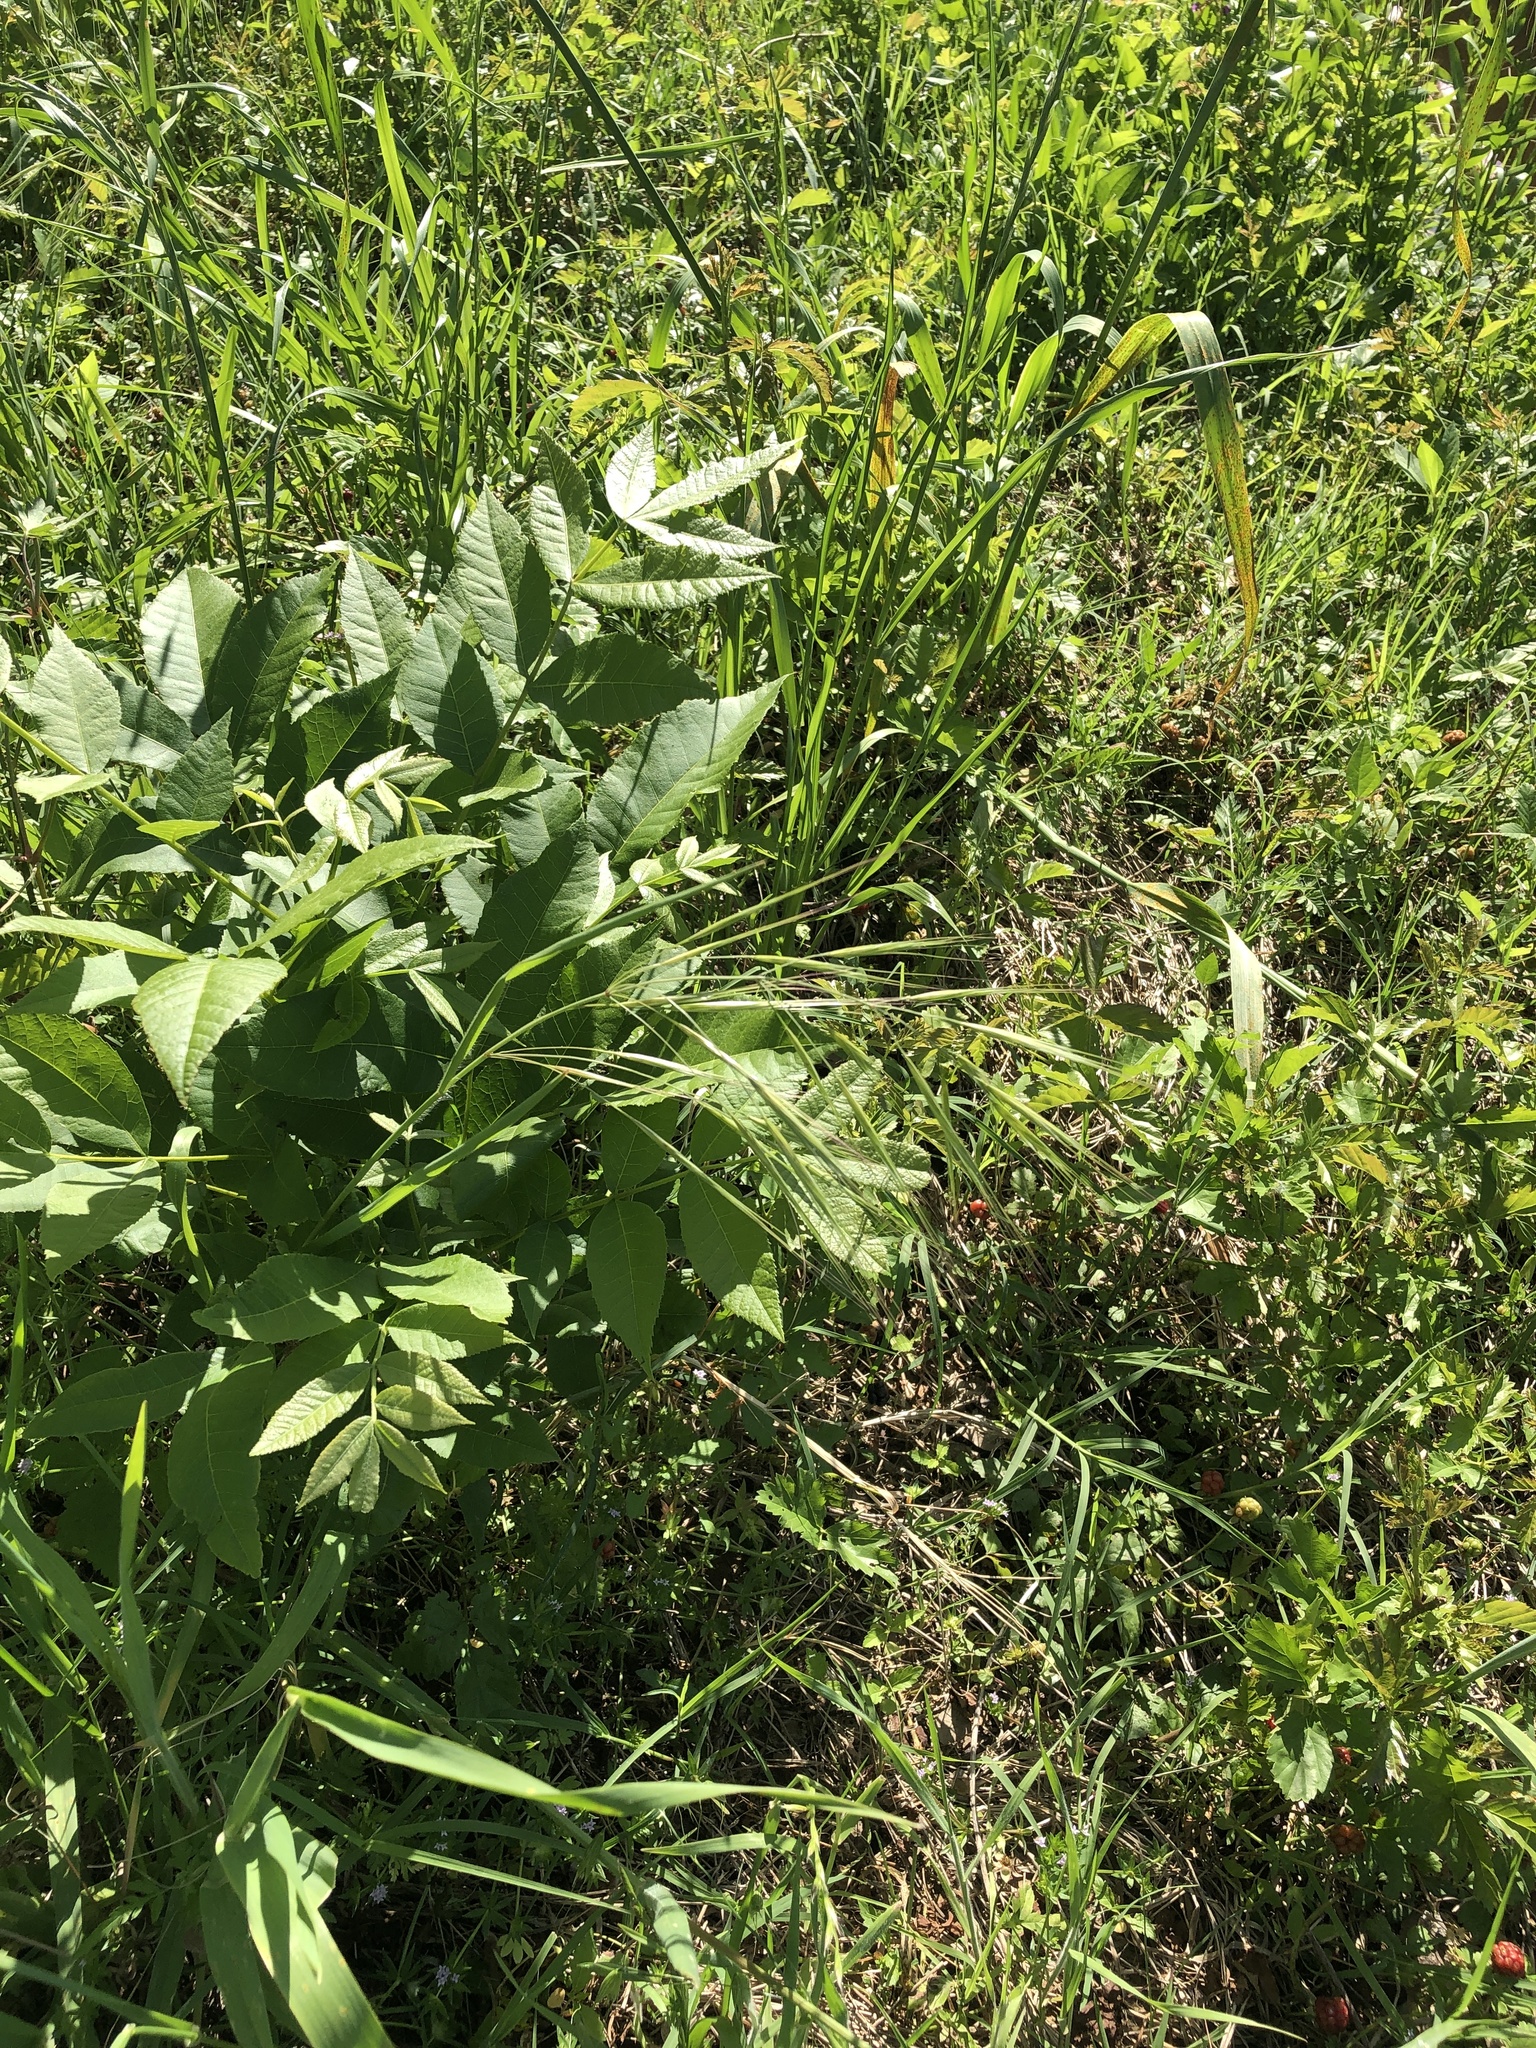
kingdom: Plantae
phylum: Tracheophyta
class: Liliopsida
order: Poales
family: Poaceae
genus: Bromus
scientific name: Bromus diandrus
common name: Ripgut brome
